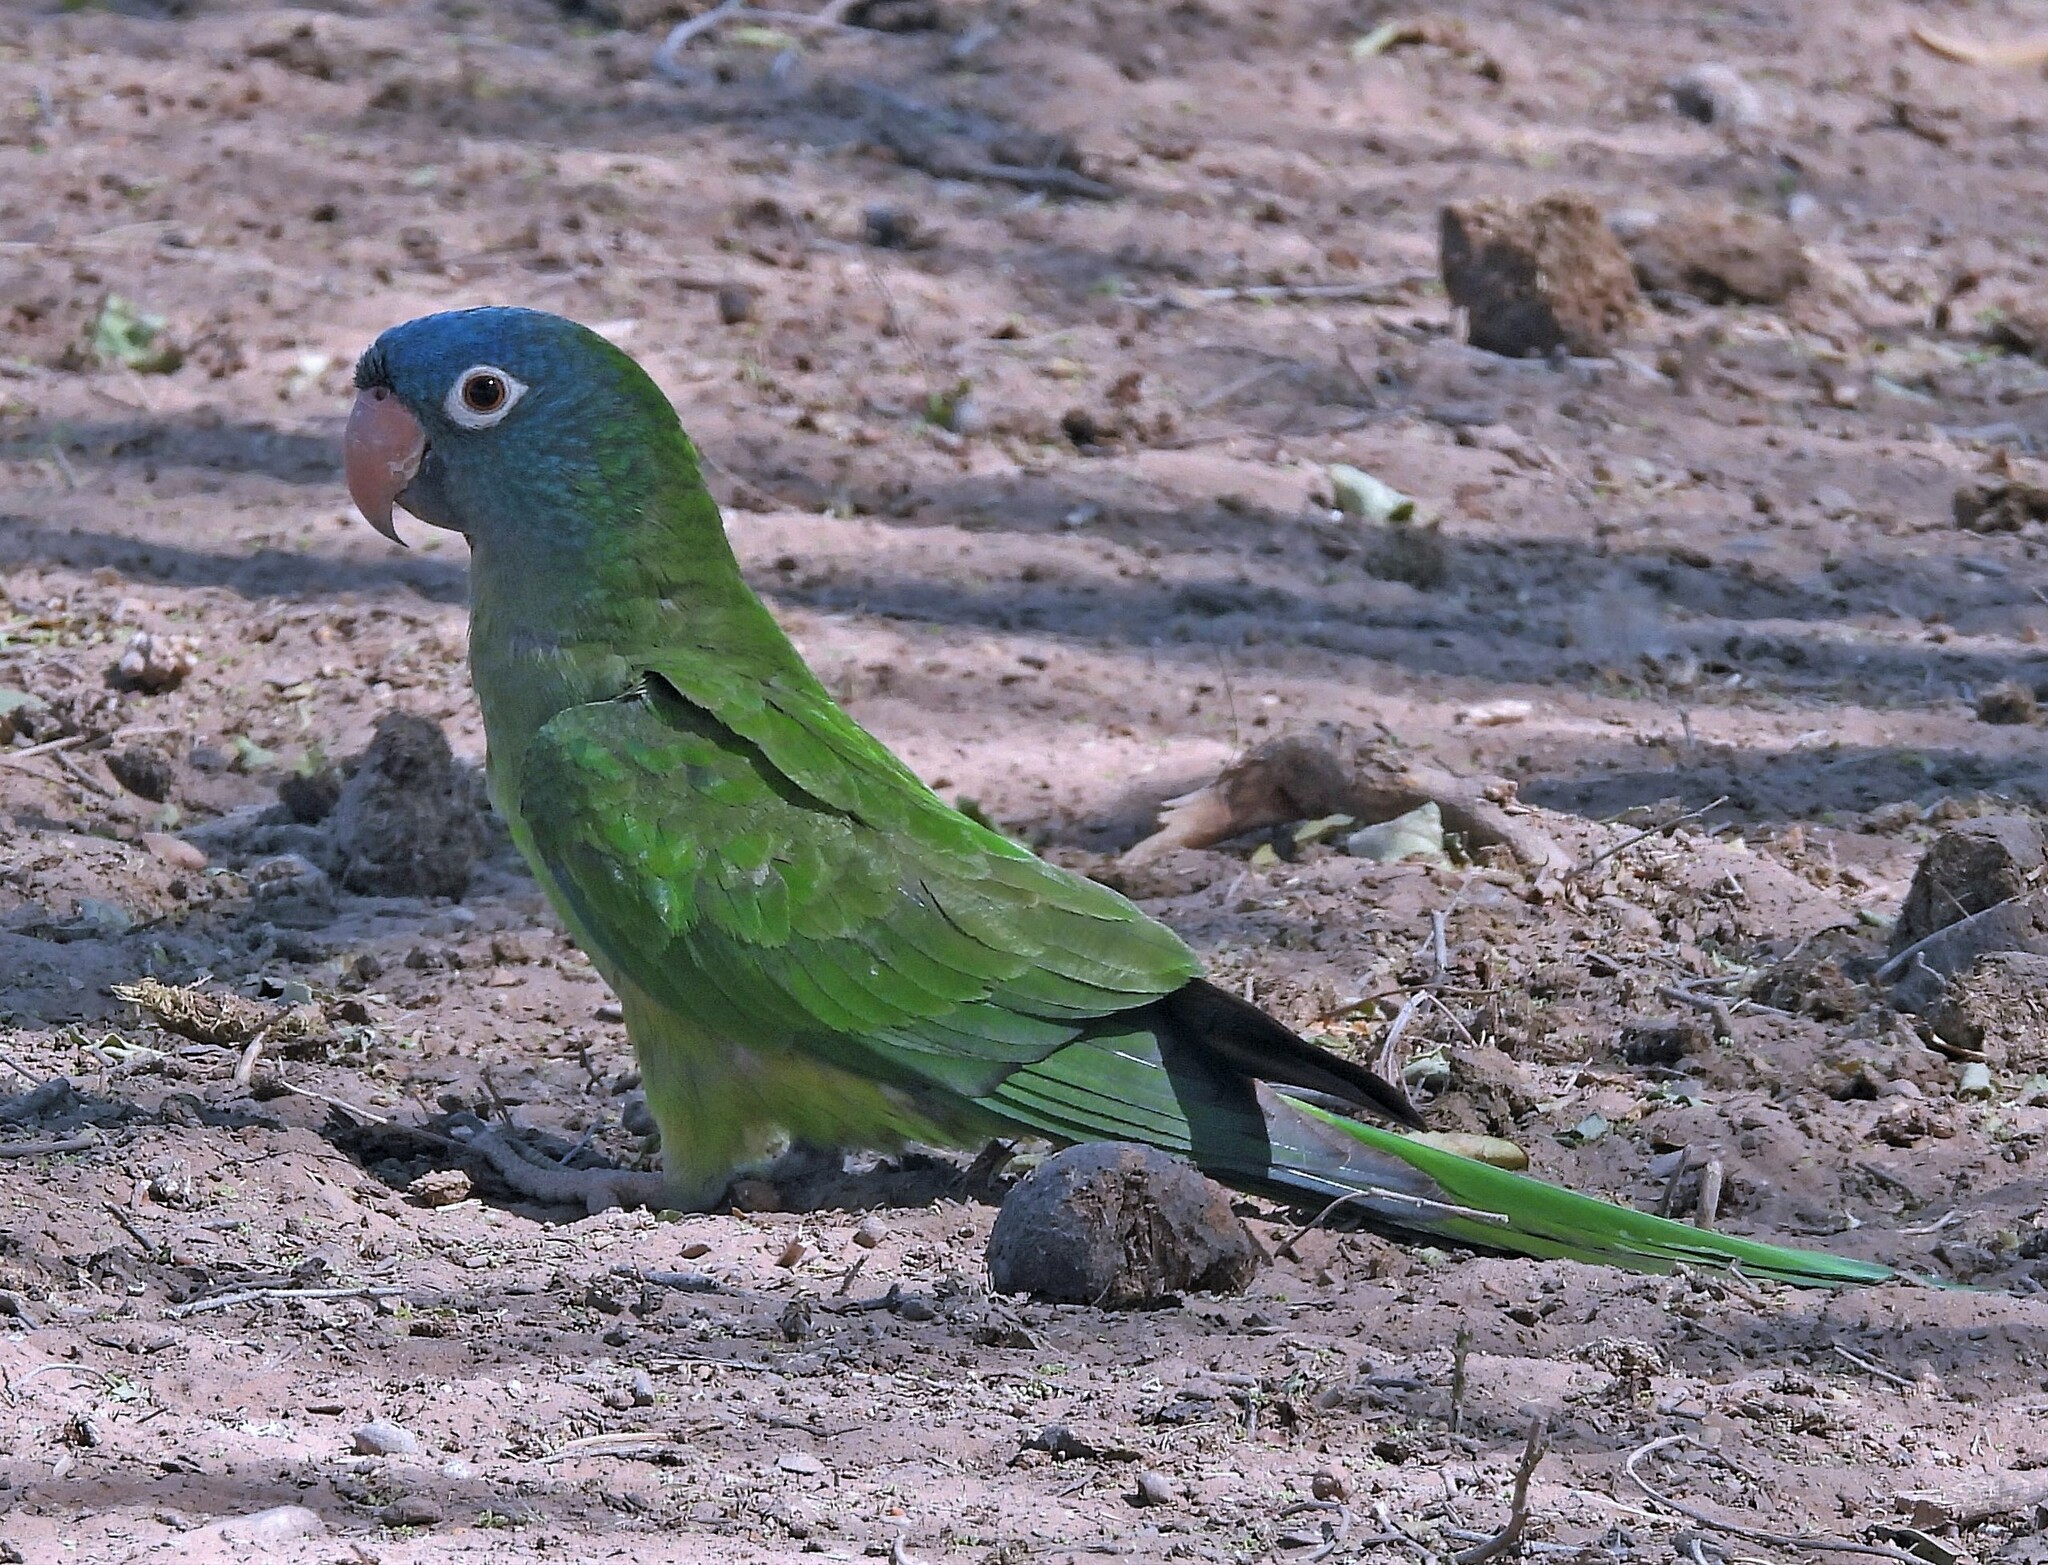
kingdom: Animalia
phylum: Chordata
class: Aves
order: Psittaciformes
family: Psittacidae
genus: Aratinga
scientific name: Aratinga acuticaudata
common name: Blue-crowned parakeet
